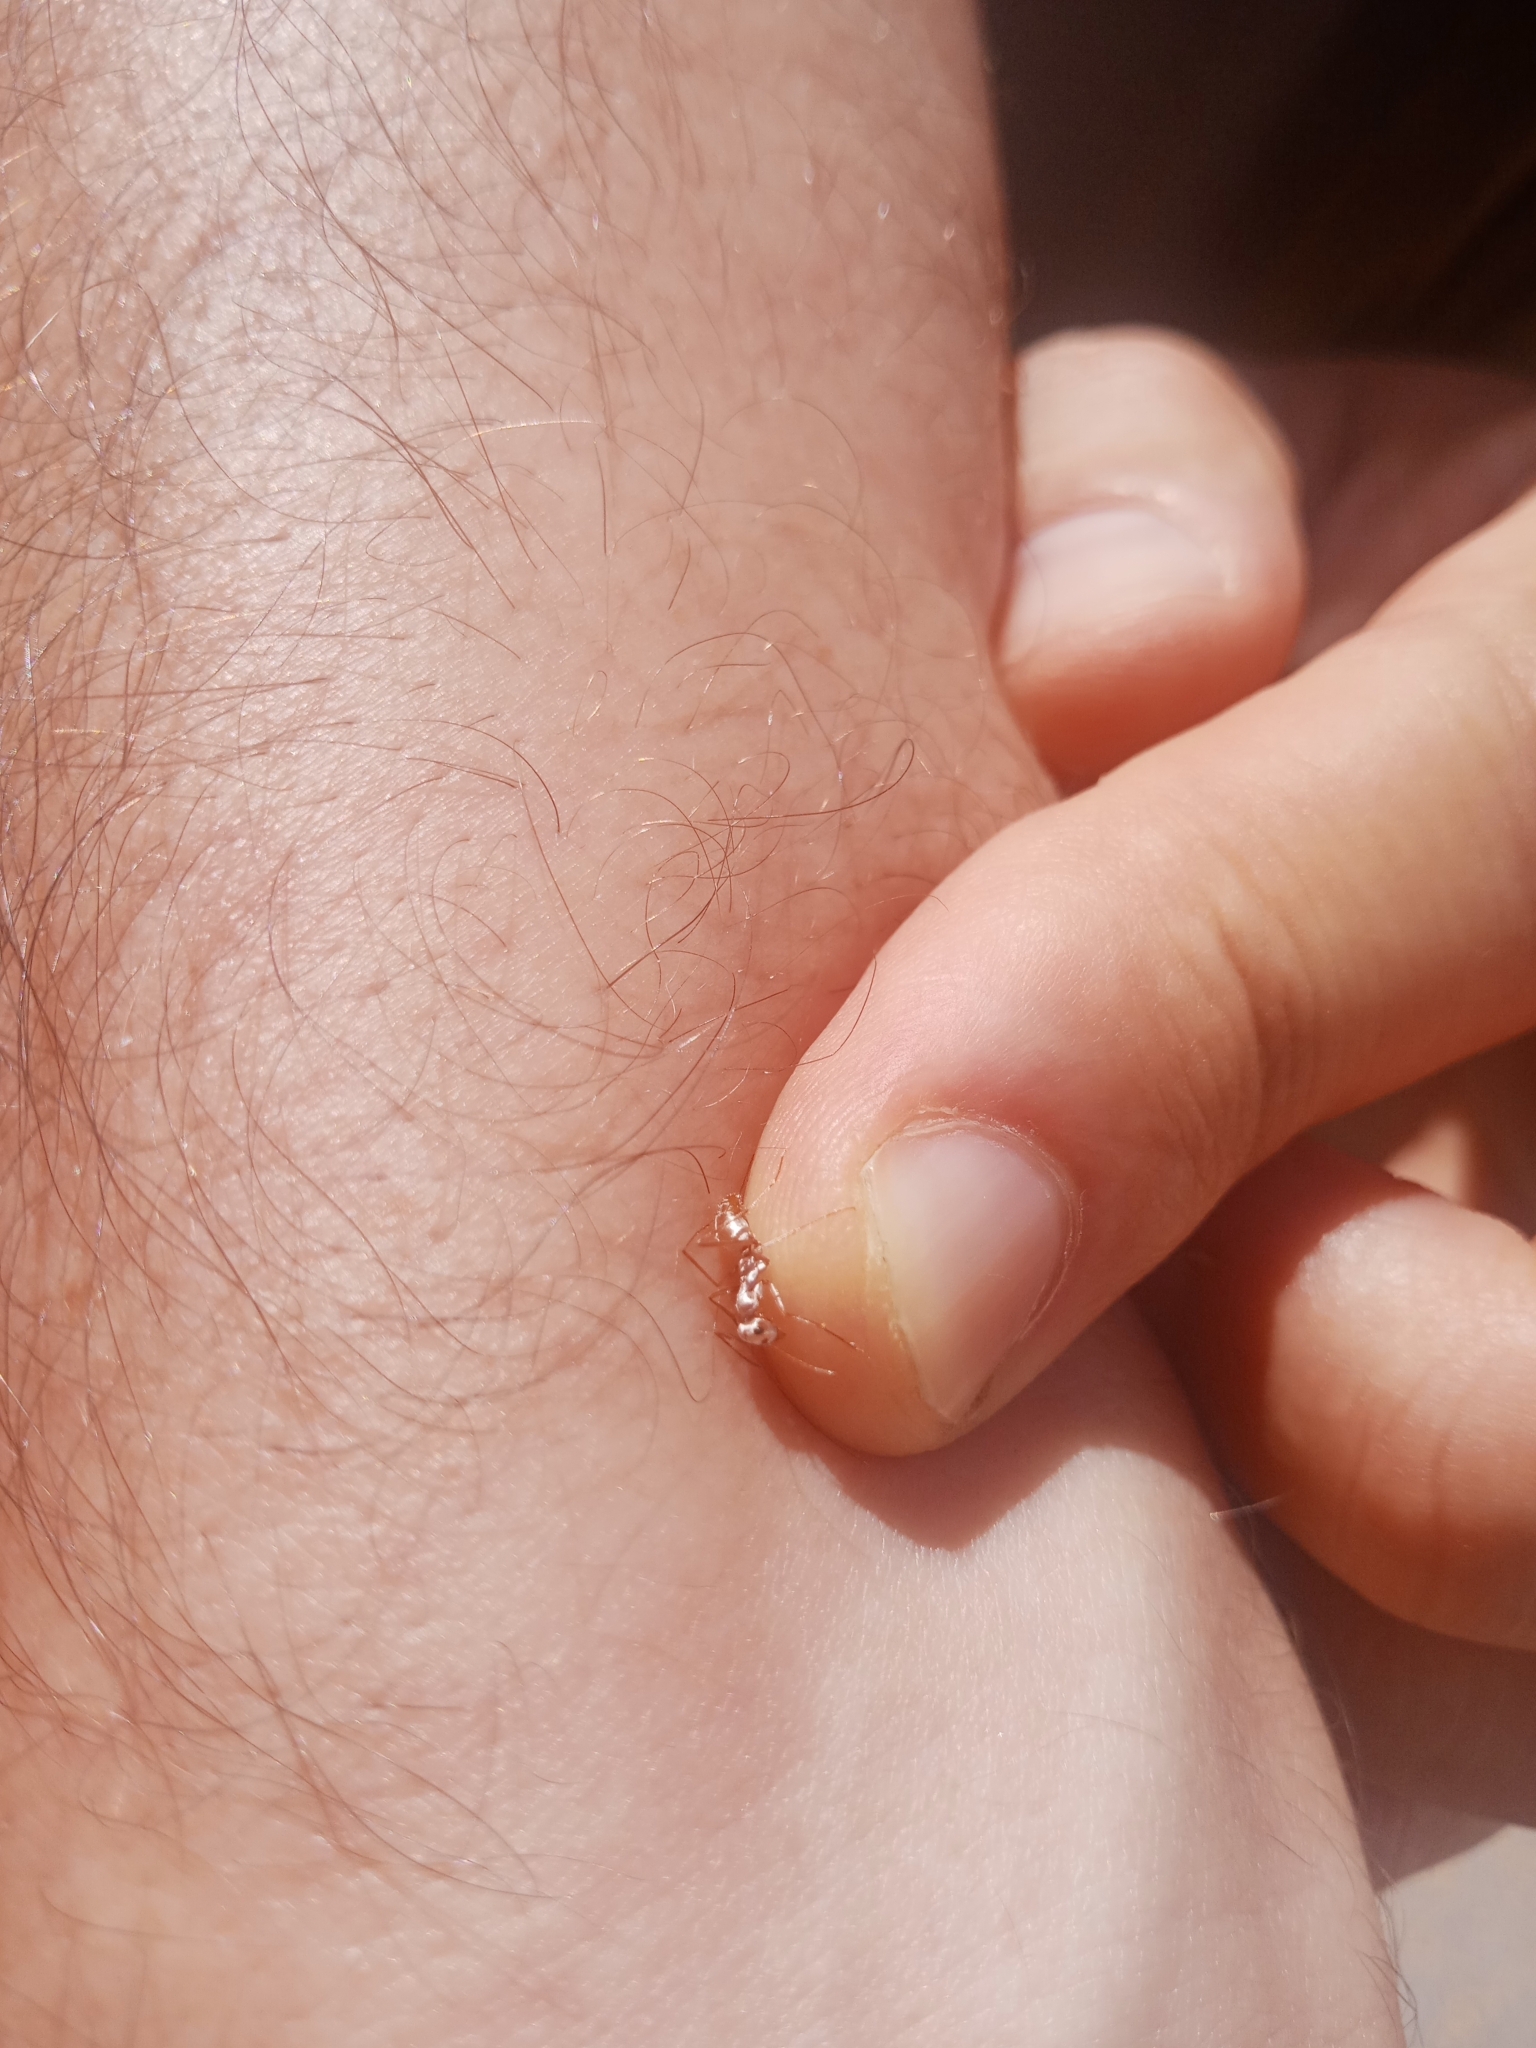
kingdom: Animalia
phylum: Arthropoda
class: Insecta
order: Hymenoptera
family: Formicidae
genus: Cataglyphis
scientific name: Cataglyphis bombycinus
